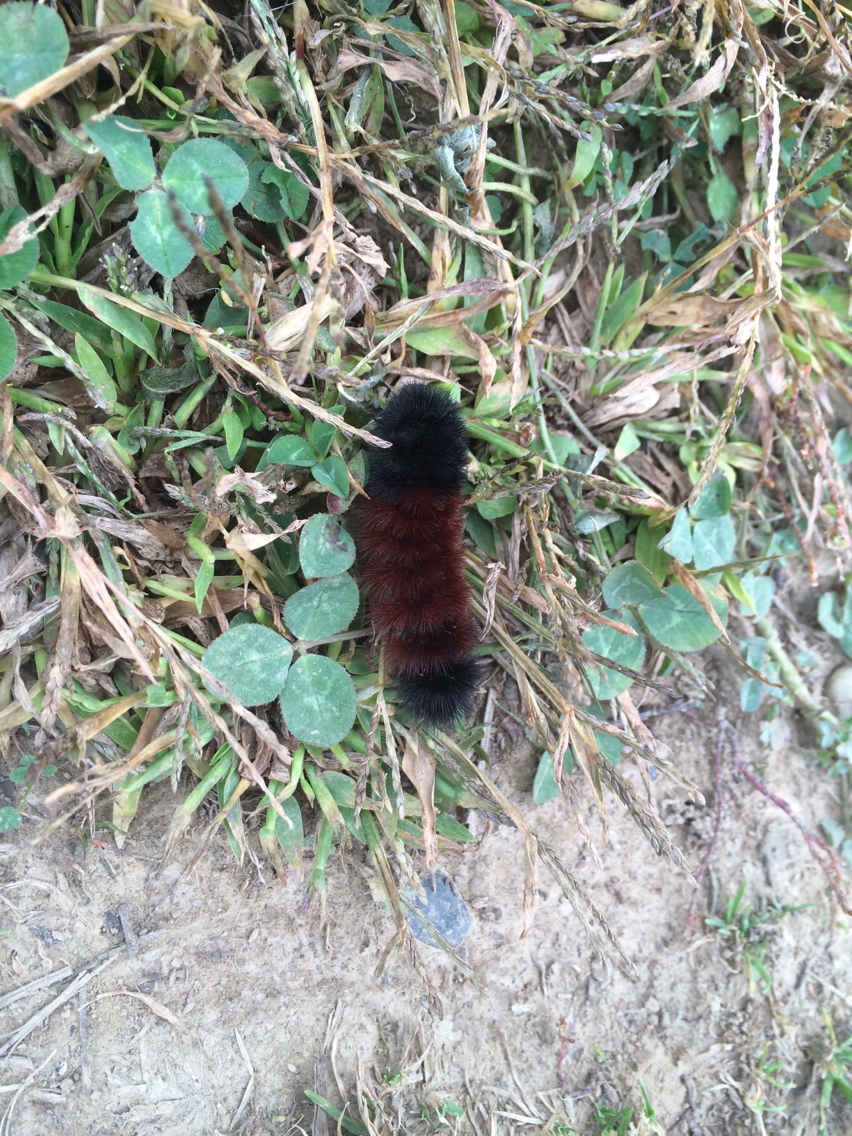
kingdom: Animalia
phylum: Arthropoda
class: Insecta
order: Lepidoptera
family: Erebidae
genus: Pyrrharctia
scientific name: Pyrrharctia isabella
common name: Isabella tiger moth
